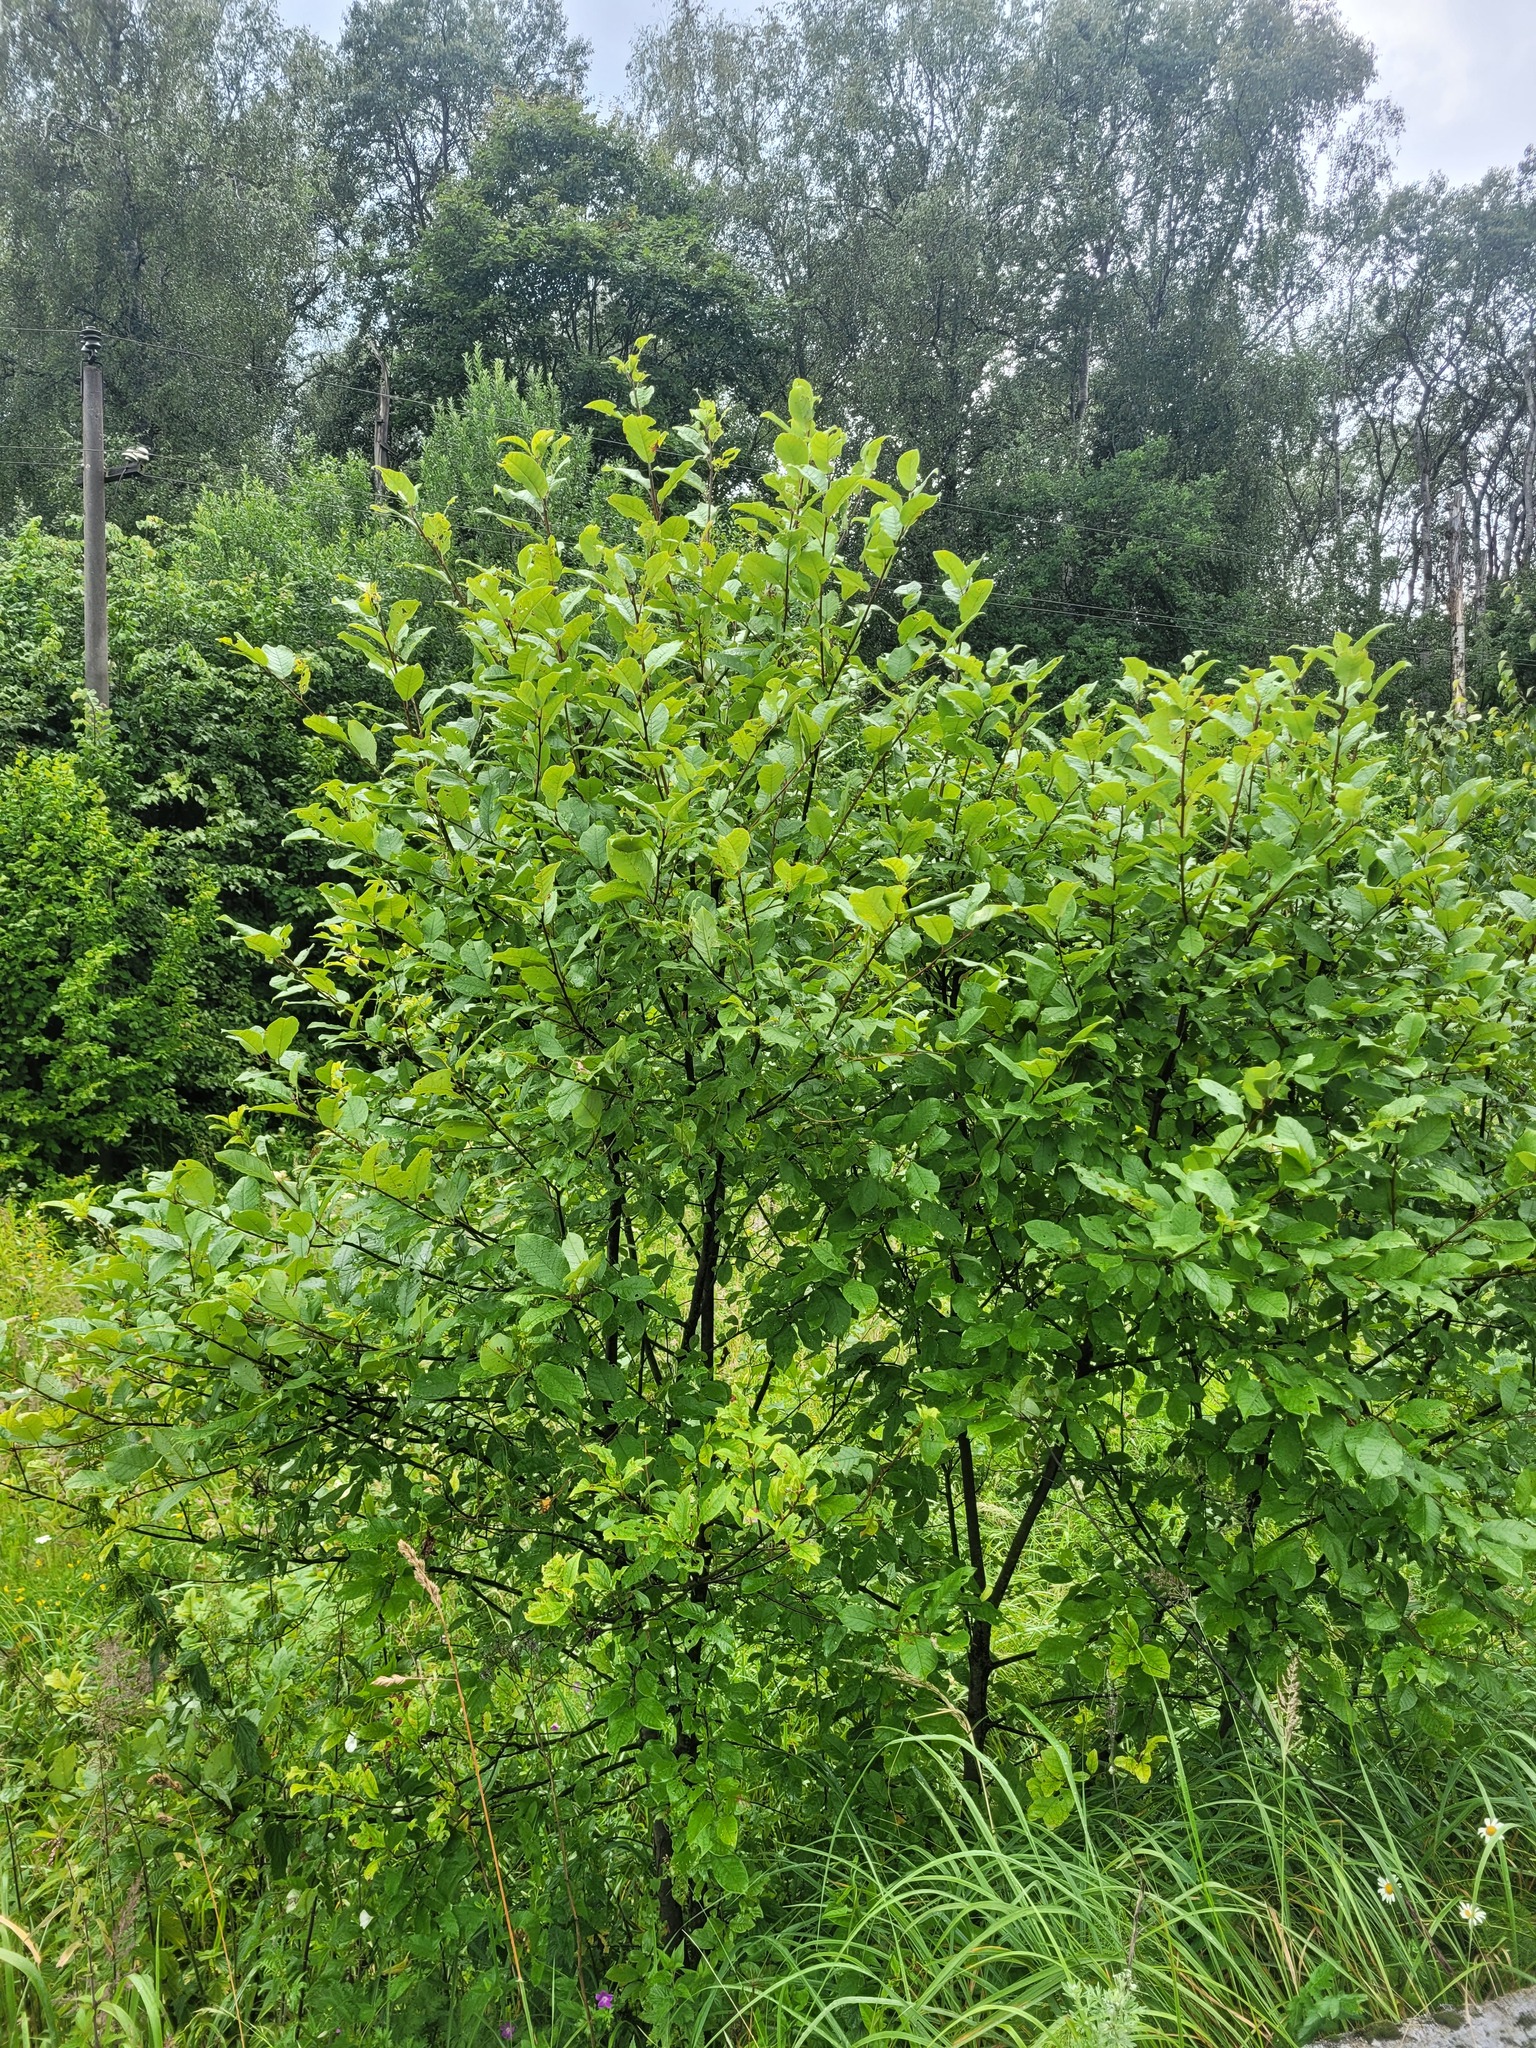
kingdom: Plantae
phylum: Tracheophyta
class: Magnoliopsida
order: Rosales
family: Rosaceae
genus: Prunus
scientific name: Prunus padus
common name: Bird cherry
